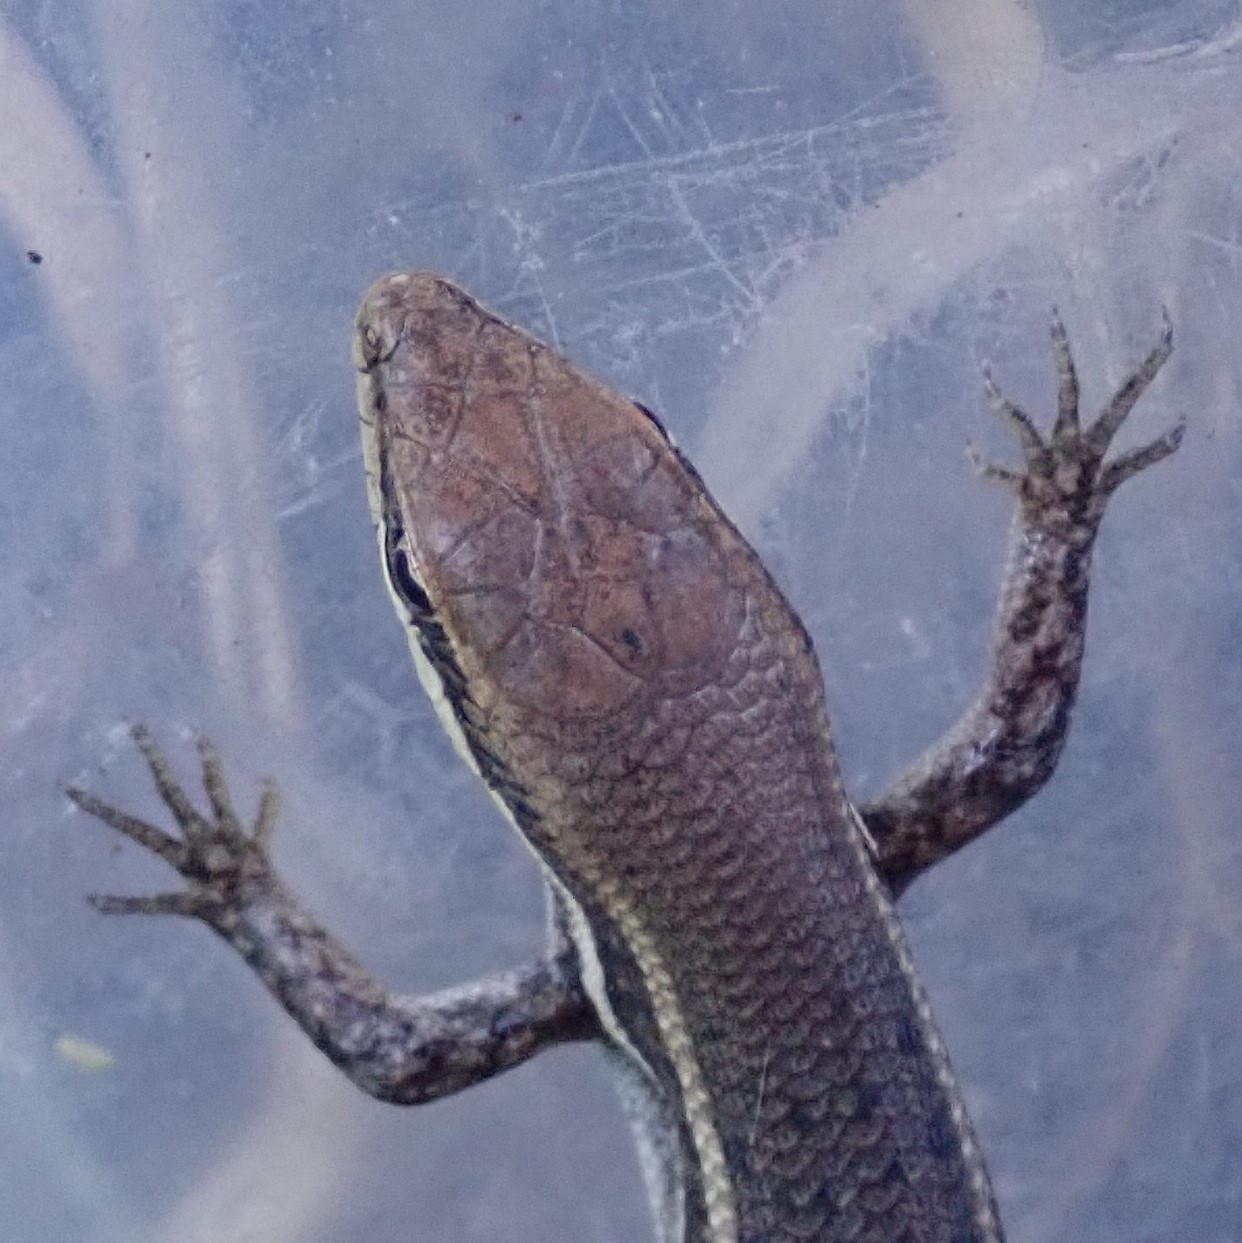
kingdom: Animalia
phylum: Chordata
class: Squamata
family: Scincidae
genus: Trachylepis
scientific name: Trachylepis damarana
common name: Damara skink
